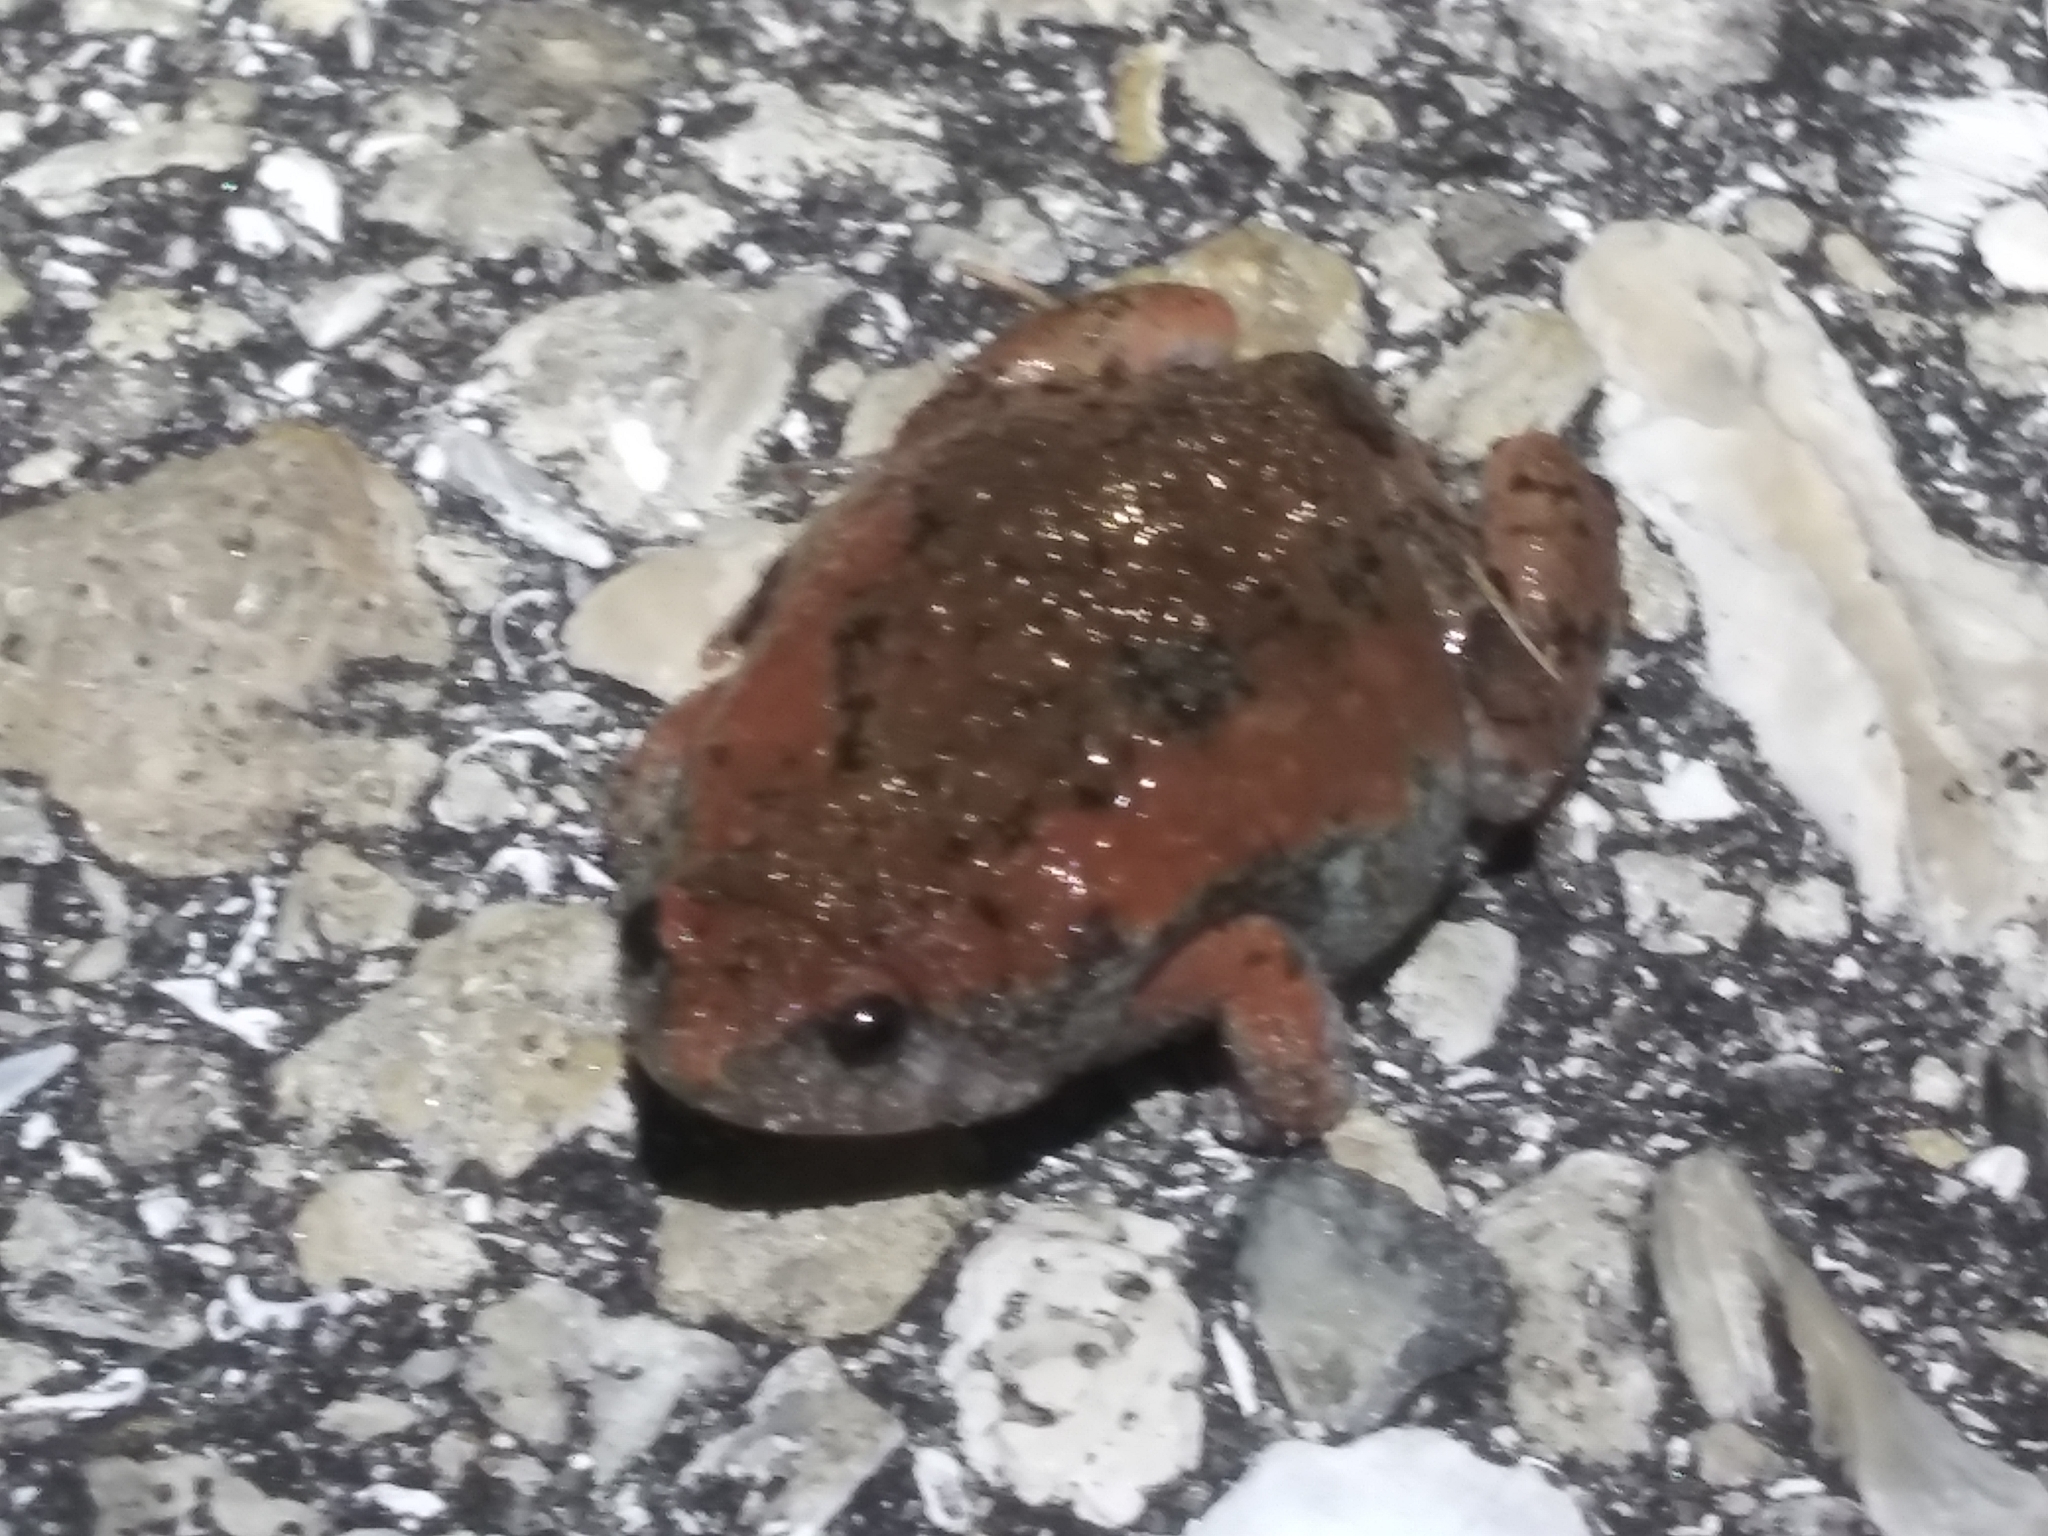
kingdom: Animalia
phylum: Chordata
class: Amphibia
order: Anura
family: Microhylidae
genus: Gastrophryne
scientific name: Gastrophryne carolinensis
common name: Eastern narrowmouth toad
